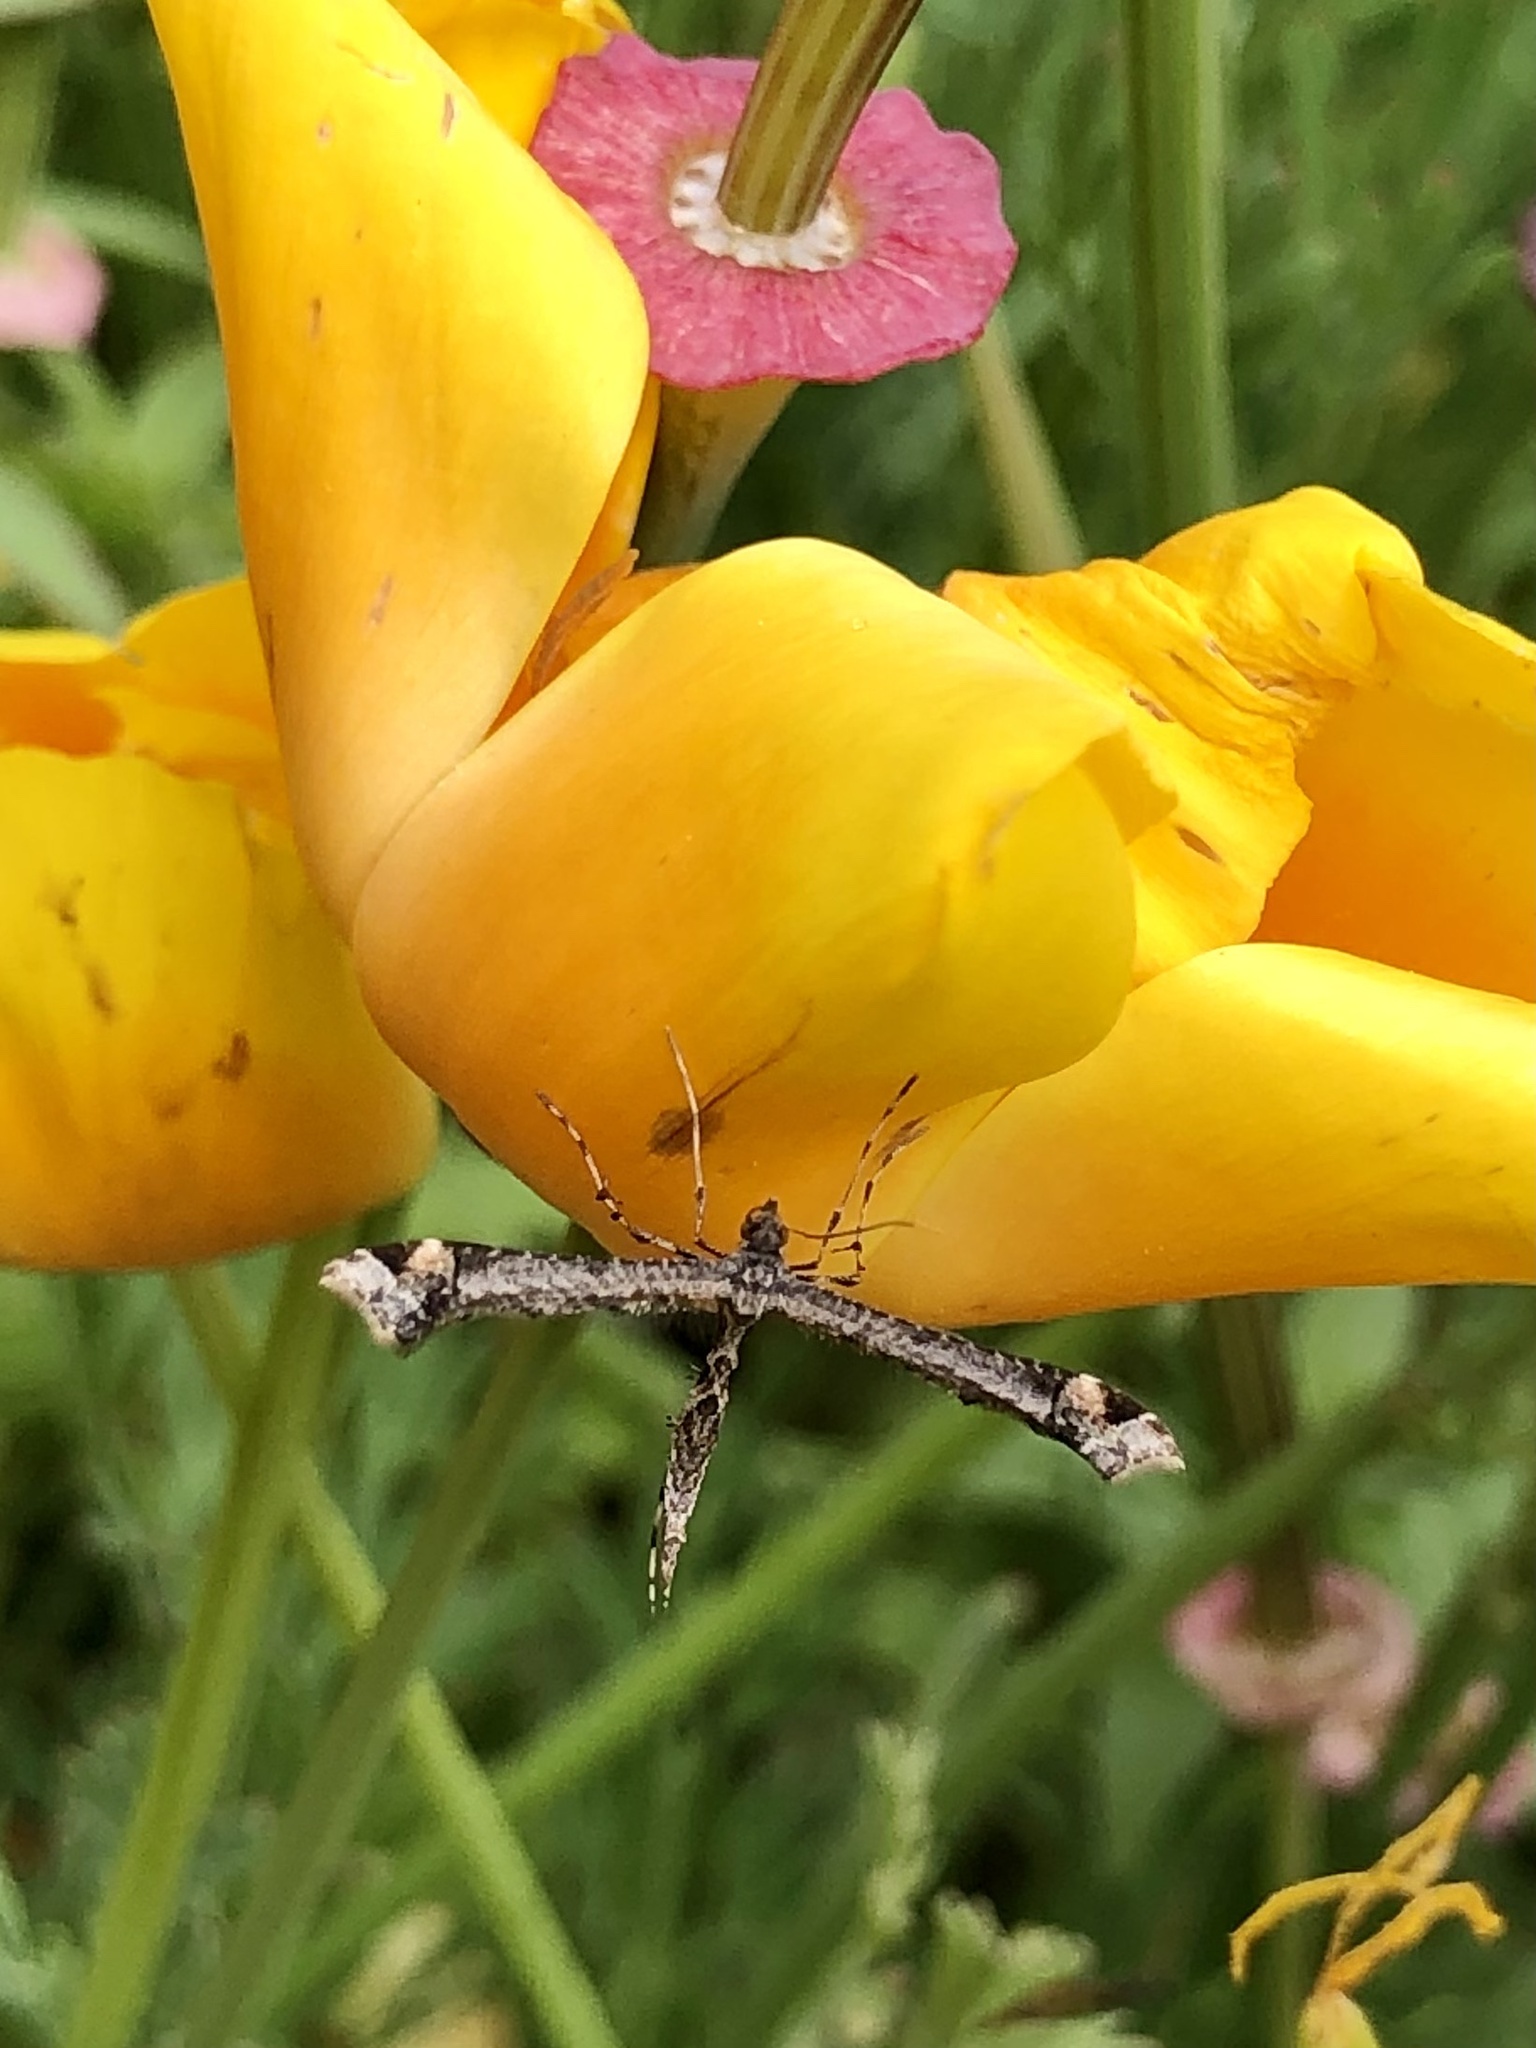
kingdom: Animalia
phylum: Arthropoda
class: Insecta
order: Lepidoptera
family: Pterophoridae
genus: Anstenoptilia
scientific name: Anstenoptilia marmarodactyla
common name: Moth
